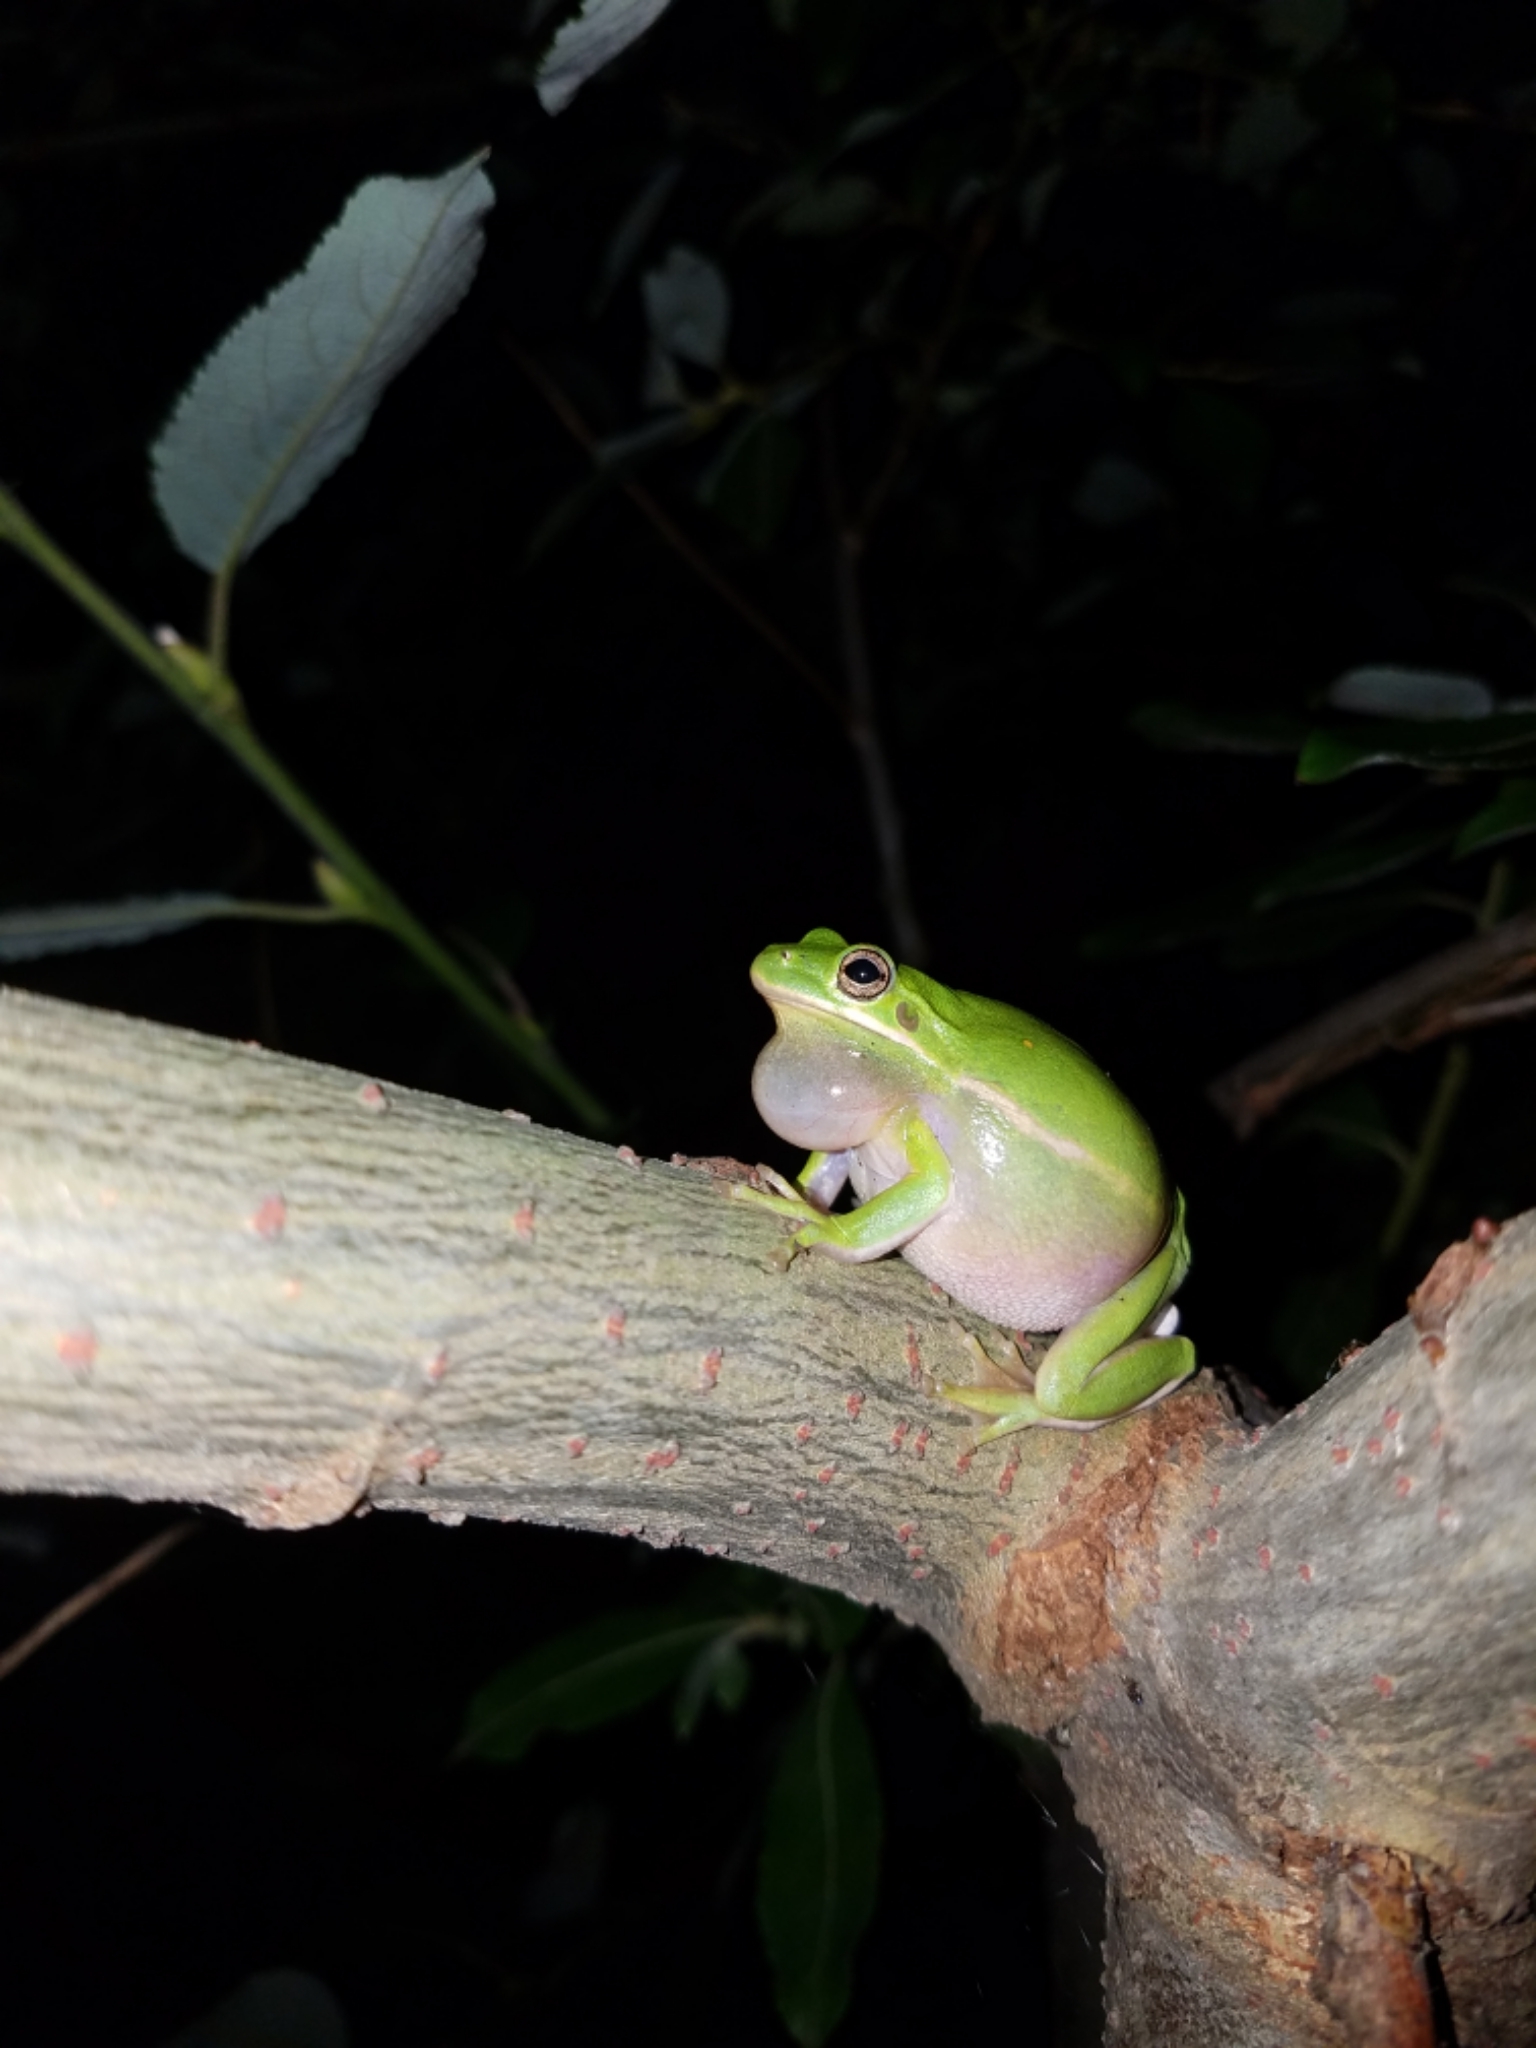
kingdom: Animalia
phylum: Chordata
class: Amphibia
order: Anura
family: Hylidae
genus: Dryophytes
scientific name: Dryophytes cinereus
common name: Green treefrog
